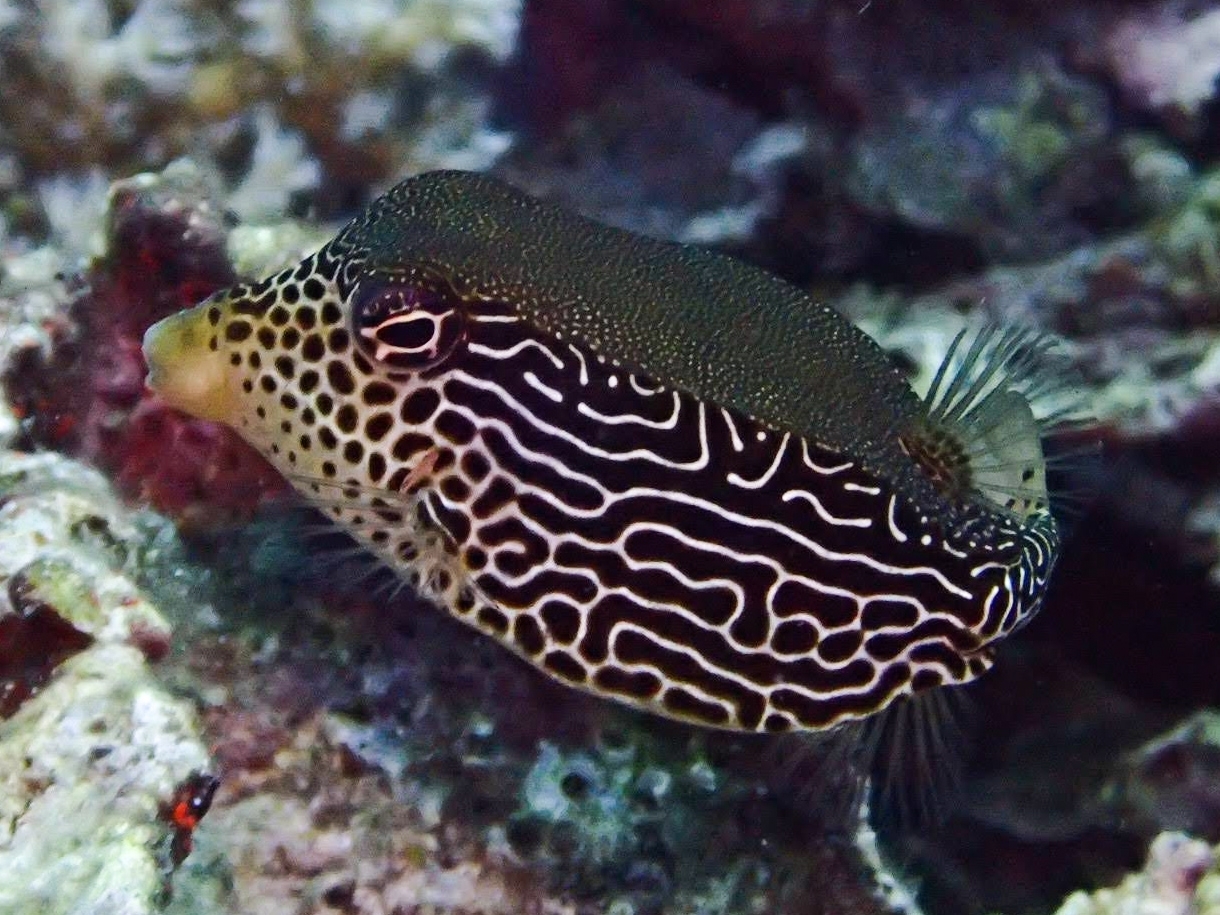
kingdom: Animalia
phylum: Chordata
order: Tetraodontiformes
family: Ostraciidae
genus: Ostracion
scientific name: Ostracion solorense
